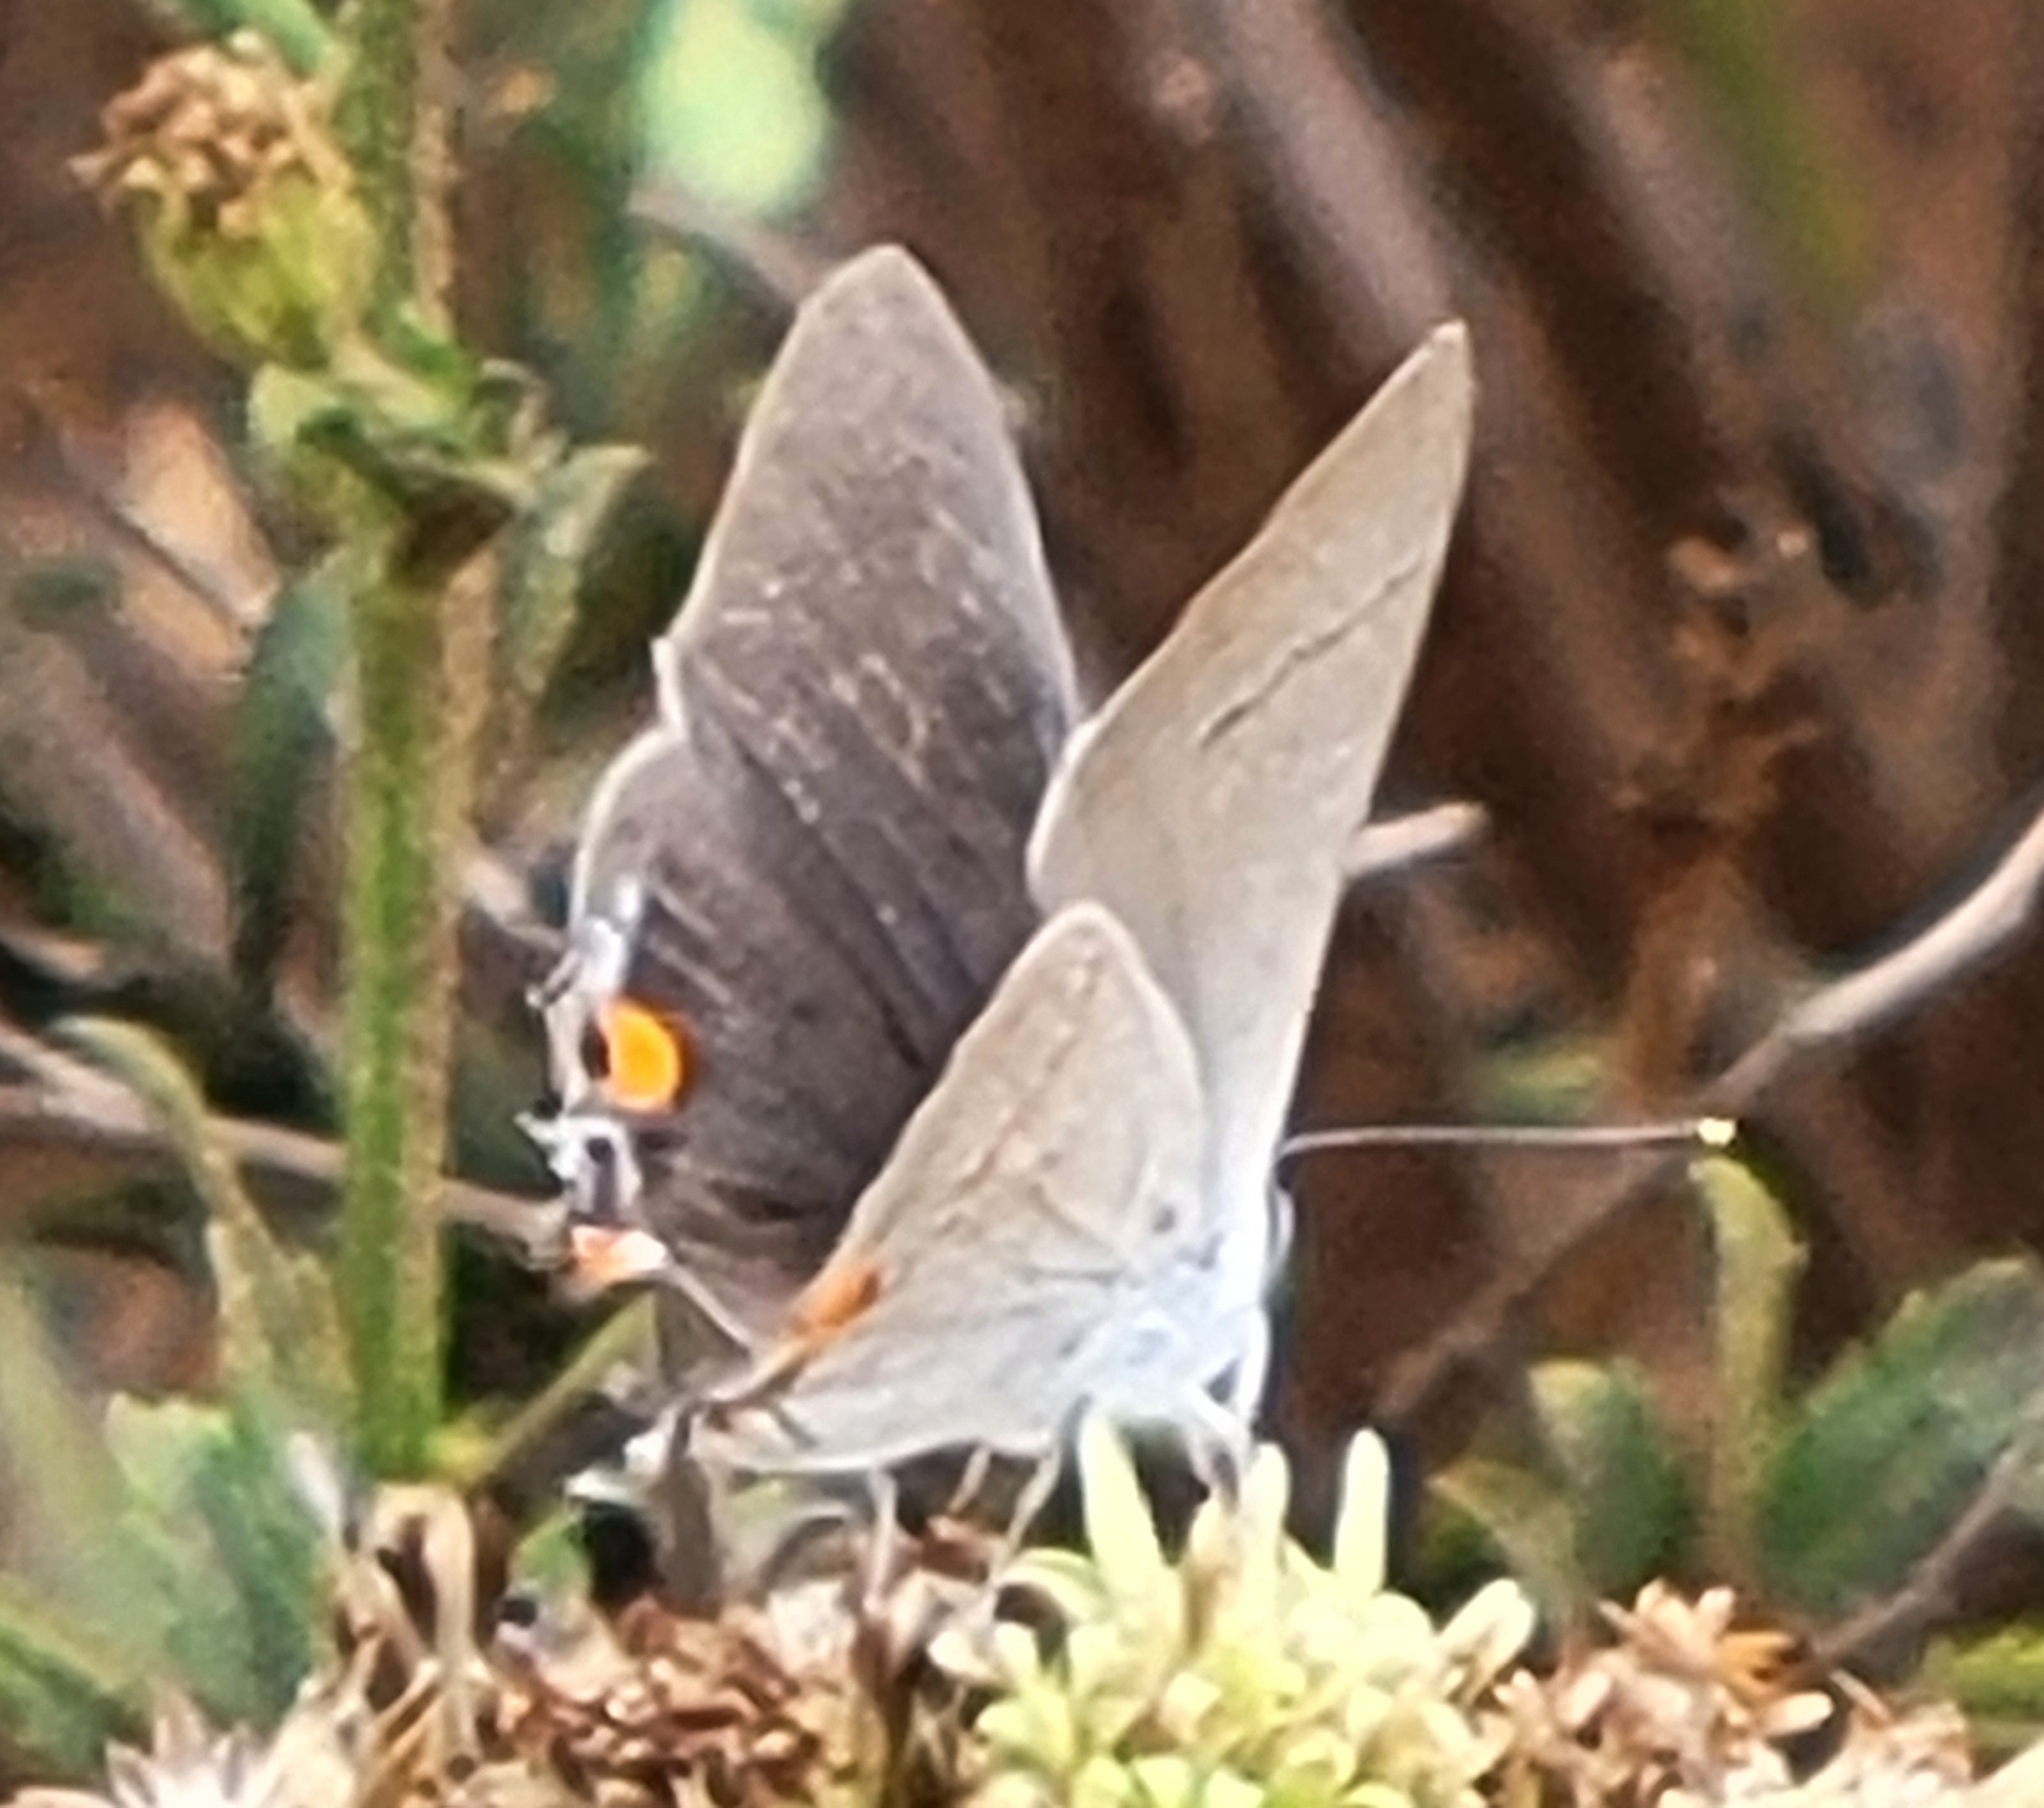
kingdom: Animalia
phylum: Arthropoda
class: Insecta
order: Lepidoptera
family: Lycaenidae
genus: Strymon
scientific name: Strymon melinus
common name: Gray hairstreak
